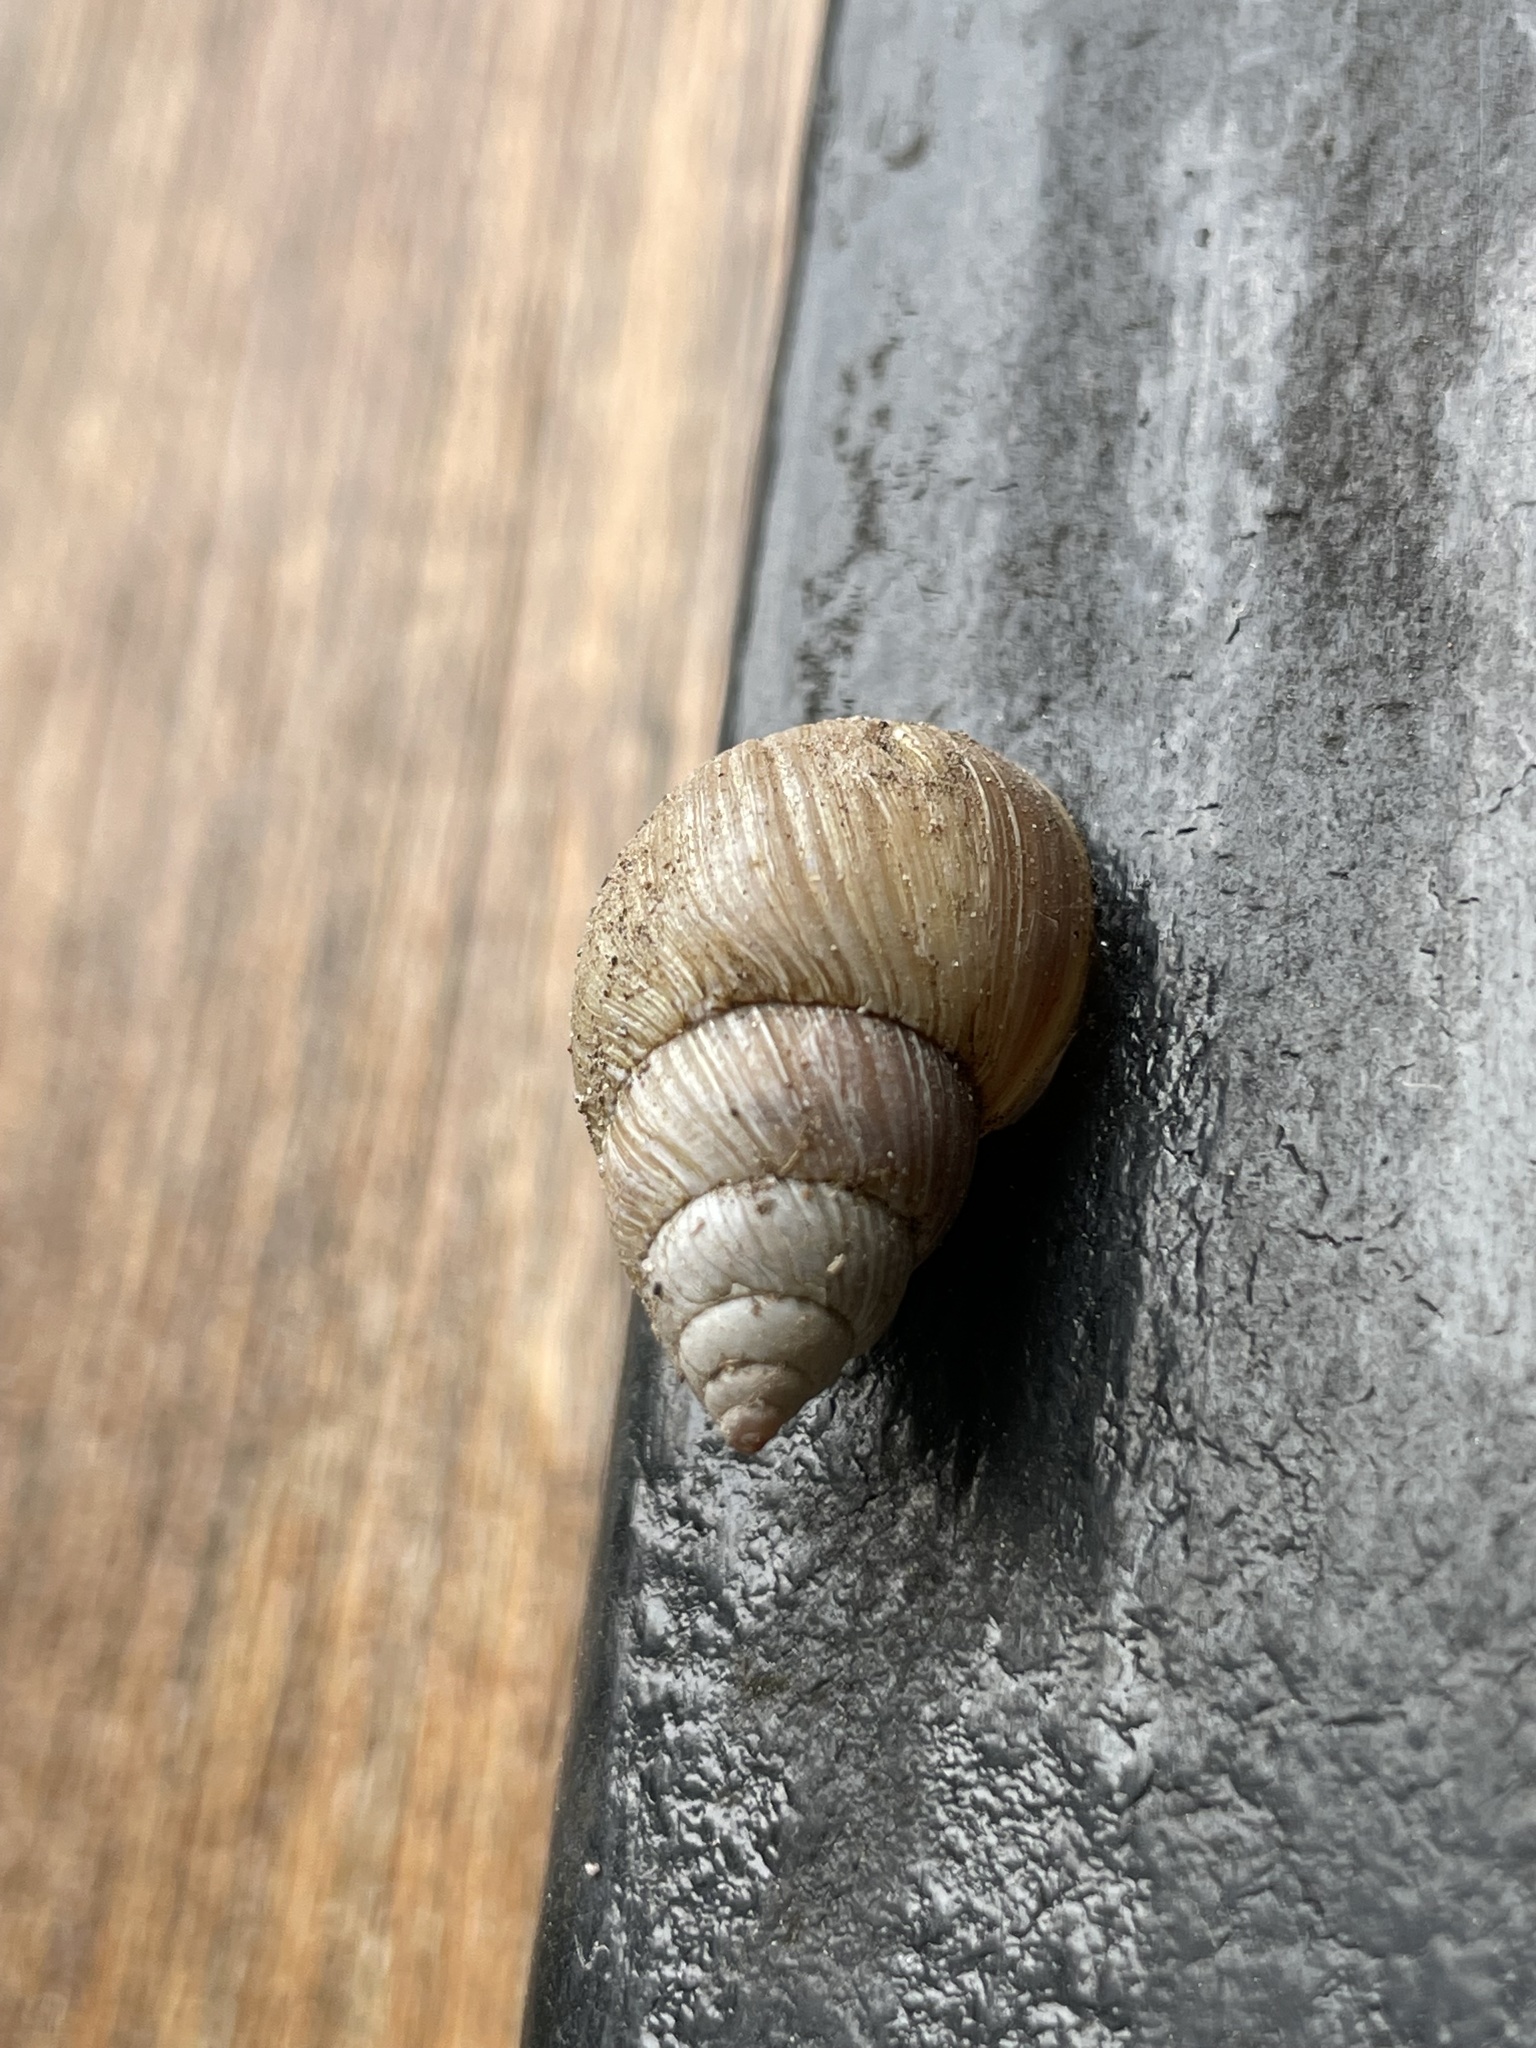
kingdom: Animalia
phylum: Mollusca
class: Gastropoda
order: Stylommatophora
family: Bulimulidae
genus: Naesiotus
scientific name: Naesiotus quitensis
